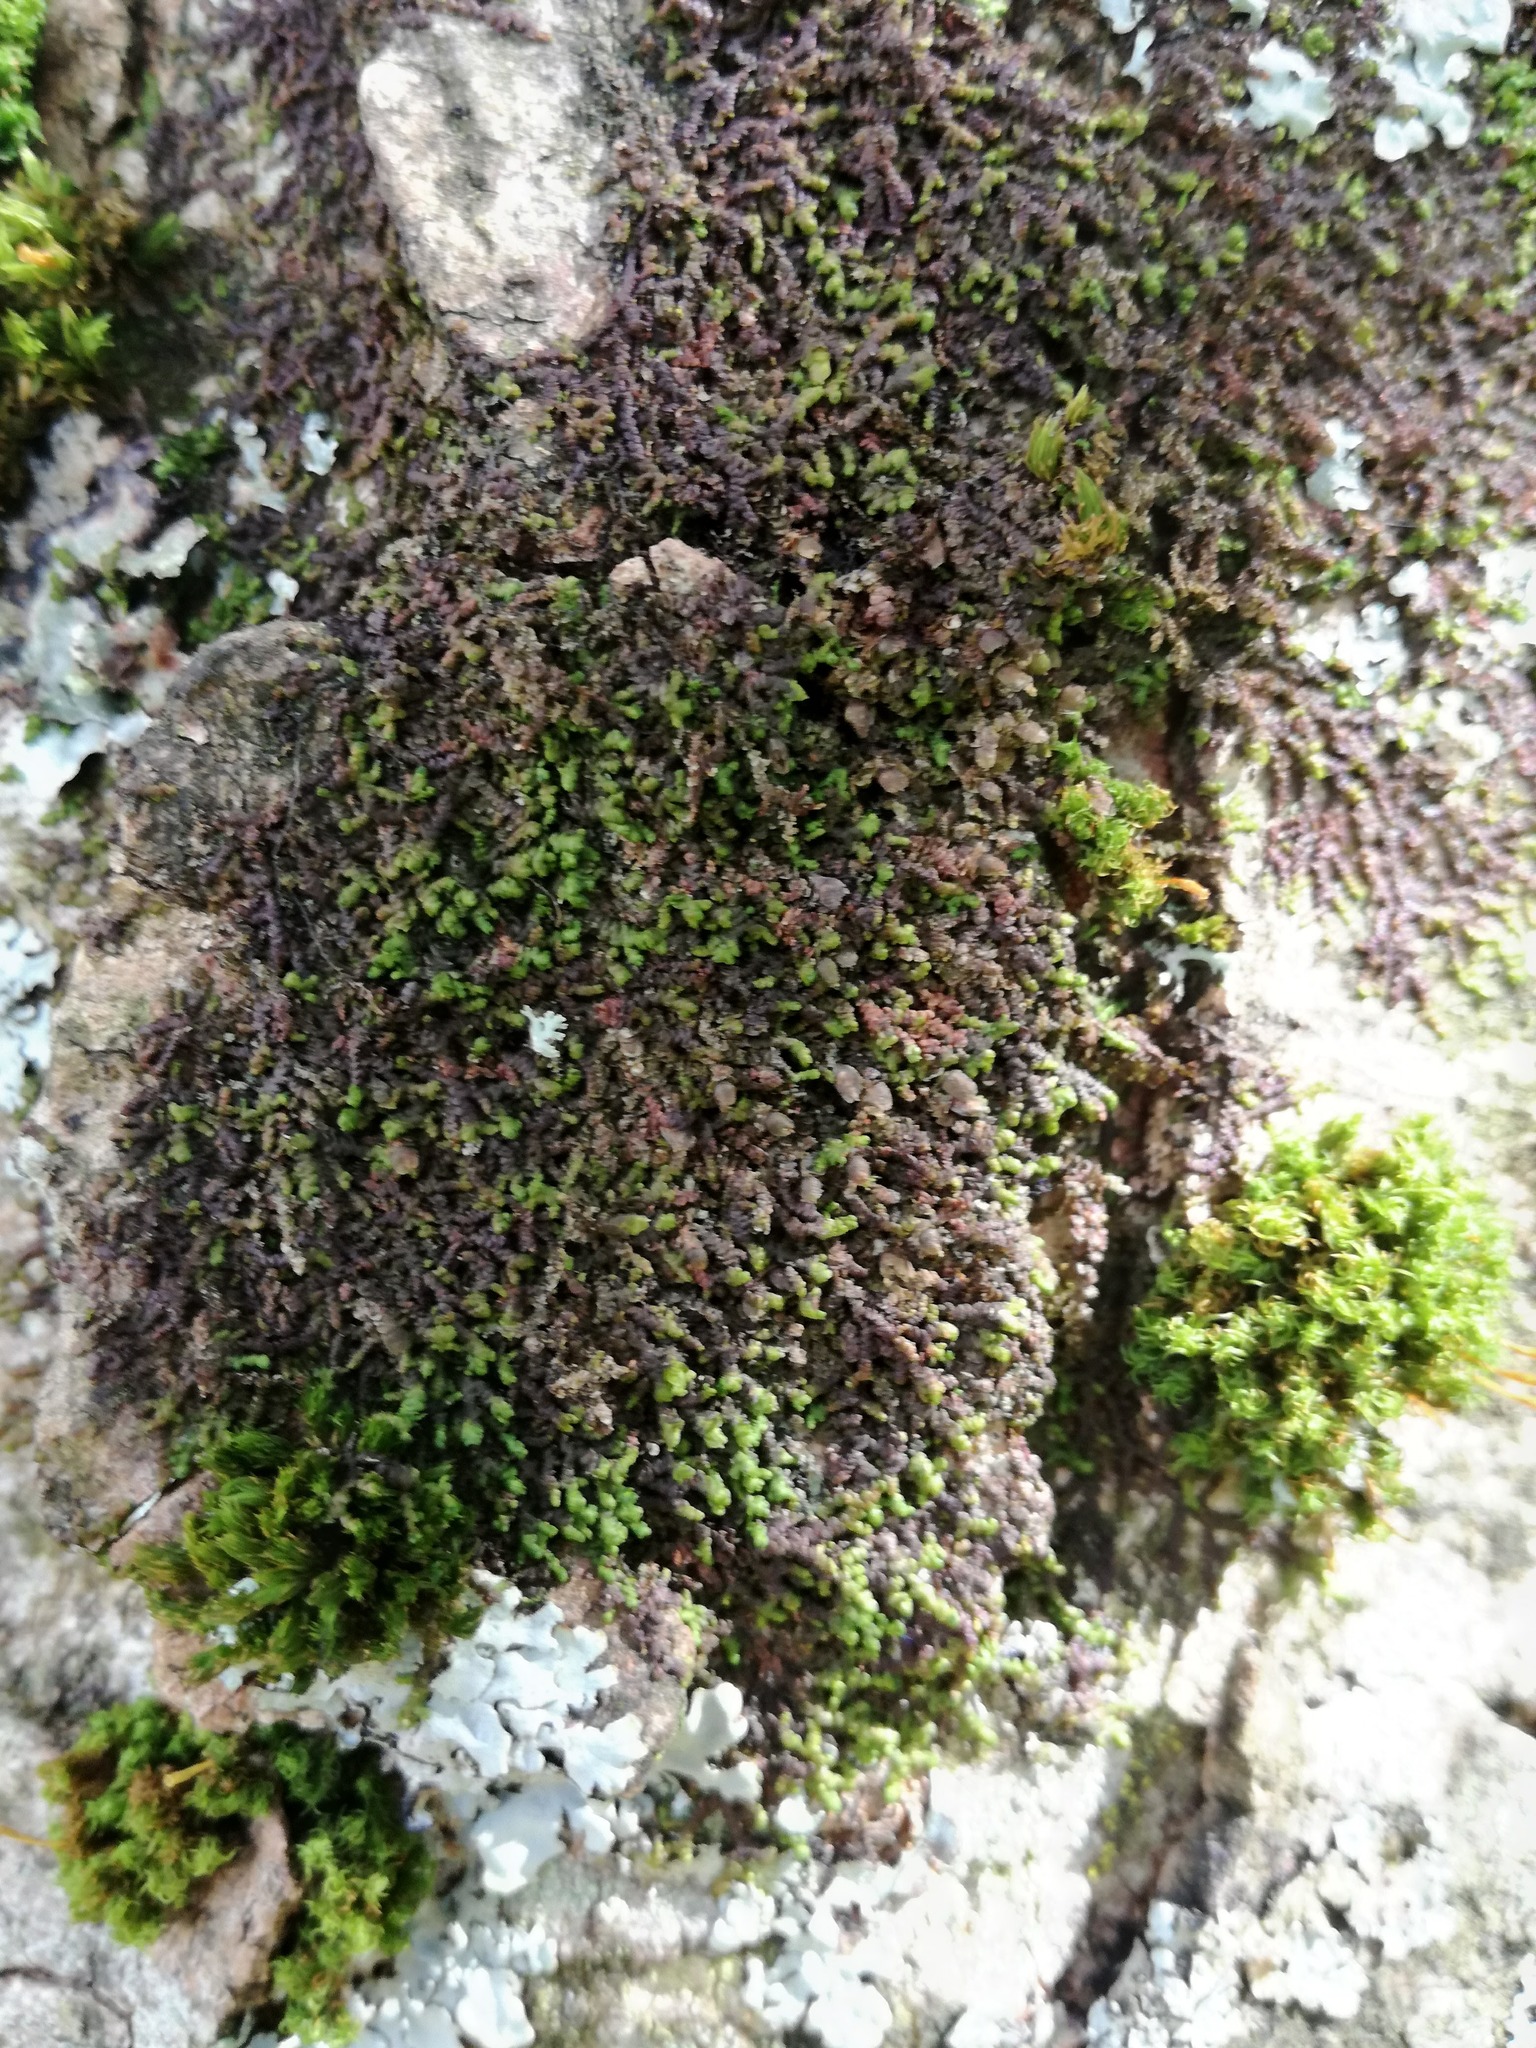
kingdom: Plantae
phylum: Marchantiophyta
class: Jungermanniopsida
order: Porellales
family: Frullaniaceae
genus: Frullania
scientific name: Frullania dilatata
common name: Dilated scalewort
